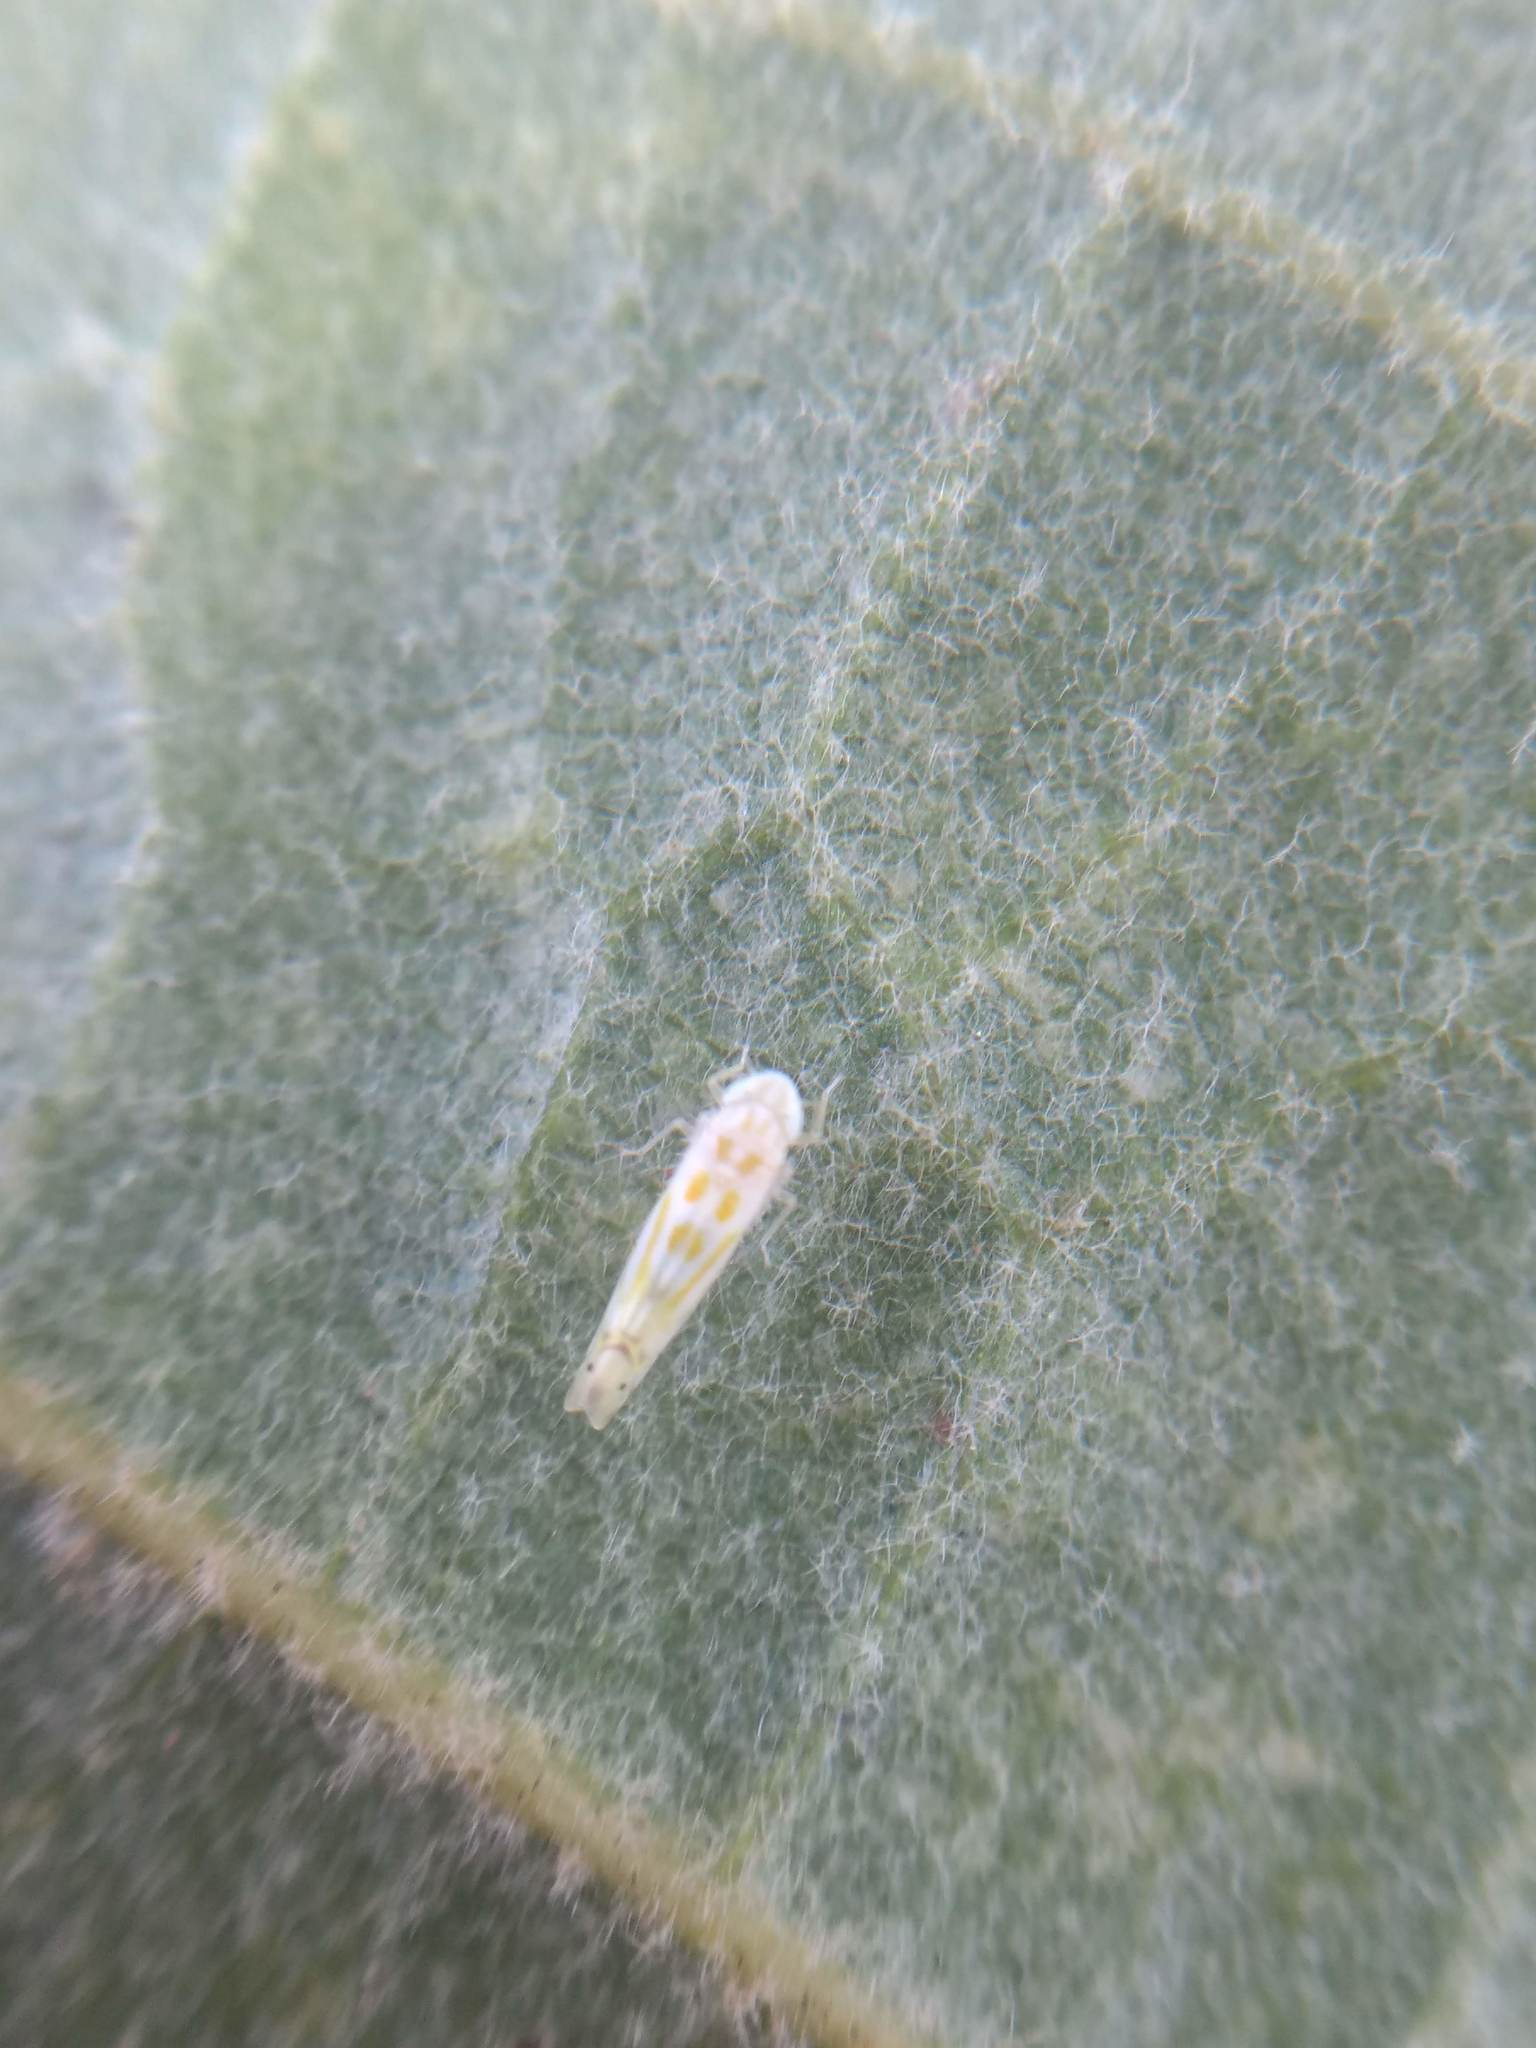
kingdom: Animalia
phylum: Arthropoda
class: Insecta
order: Hemiptera
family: Cicadellidae
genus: Alconeura
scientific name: Alconeura quadrimaculata
